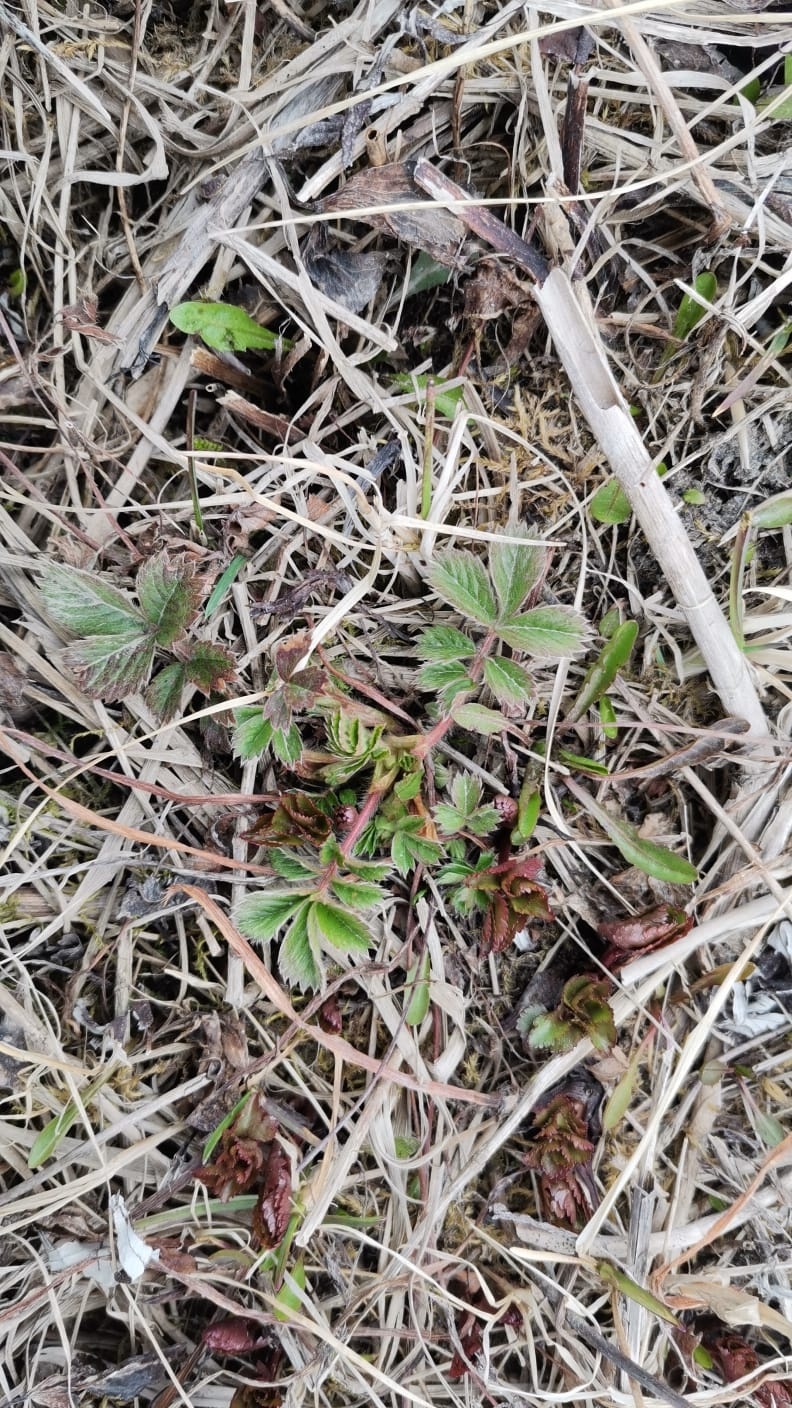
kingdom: Plantae
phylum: Tracheophyta
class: Magnoliopsida
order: Rosales
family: Rosaceae
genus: Potentilla
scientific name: Potentilla stolonifera
